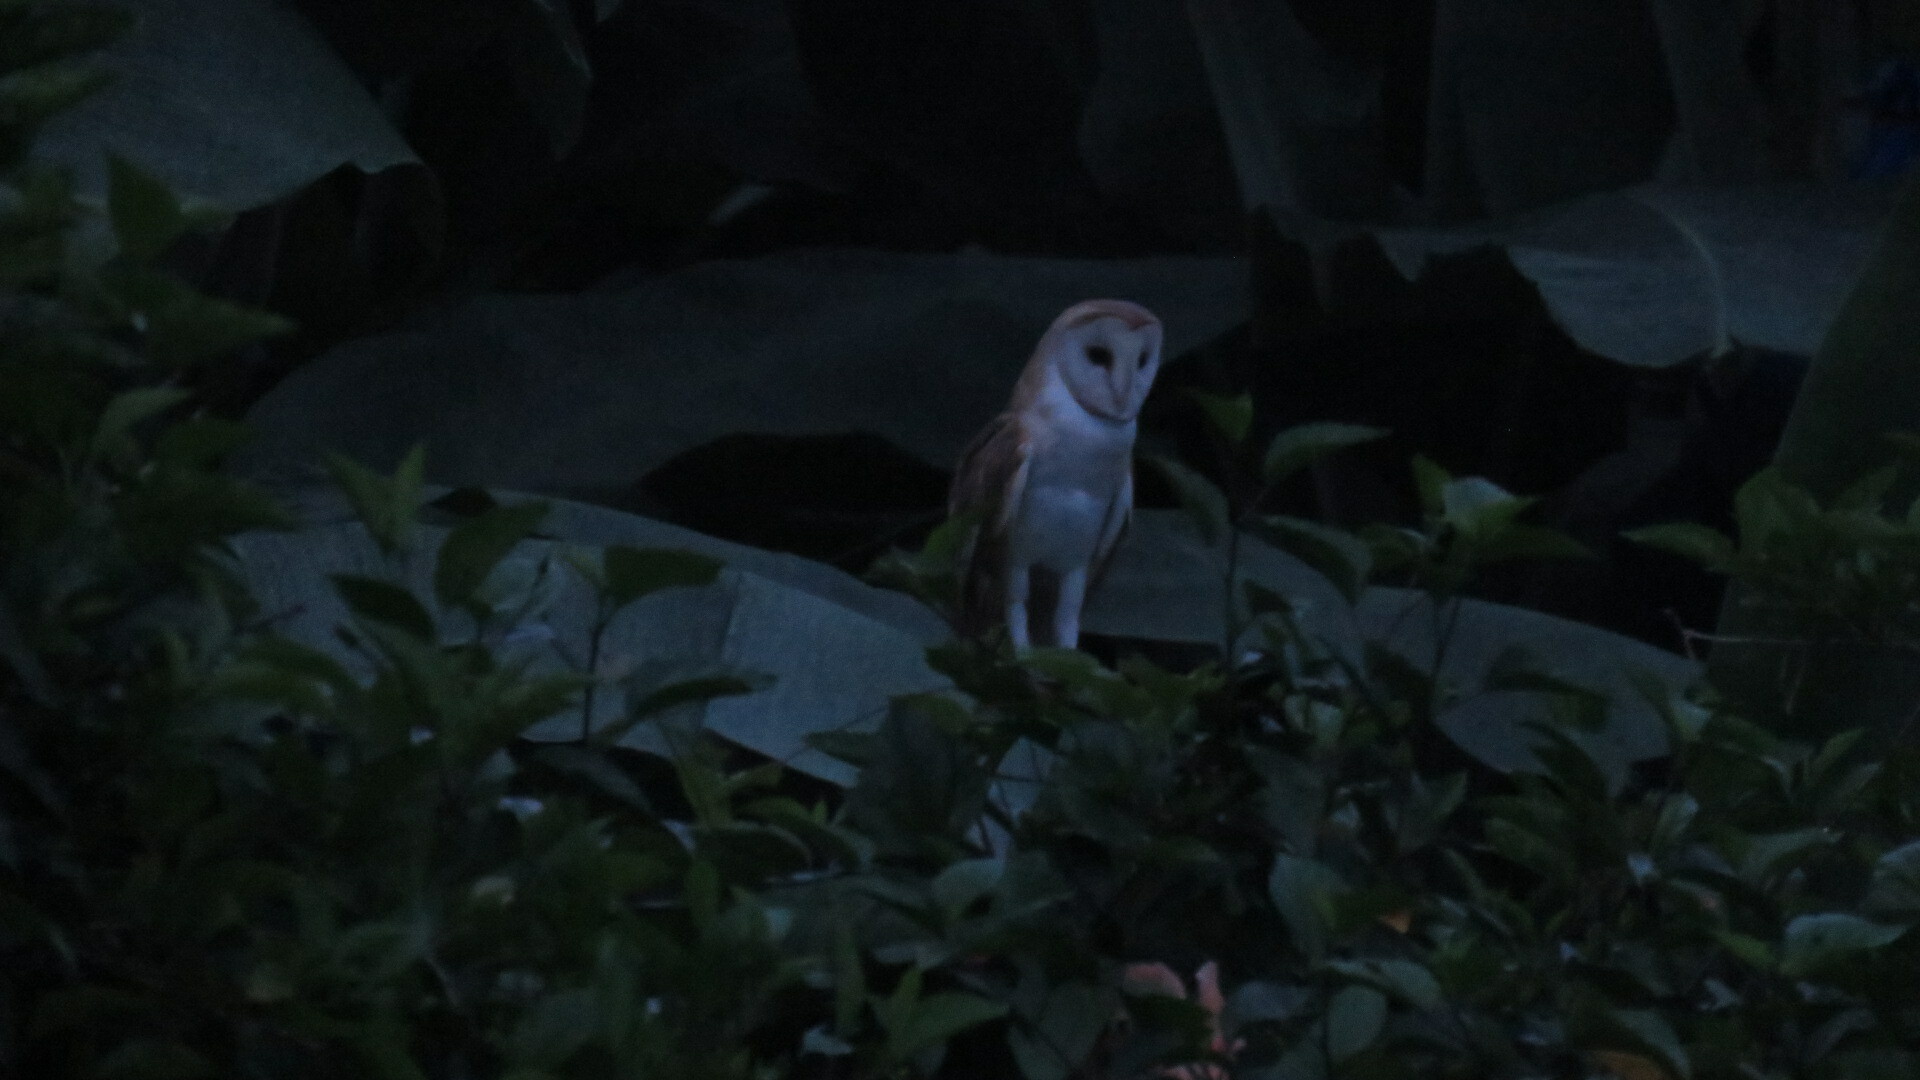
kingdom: Animalia
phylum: Chordata
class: Aves
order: Strigiformes
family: Tytonidae
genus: Tyto
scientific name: Tyto alba
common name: Barn owl
